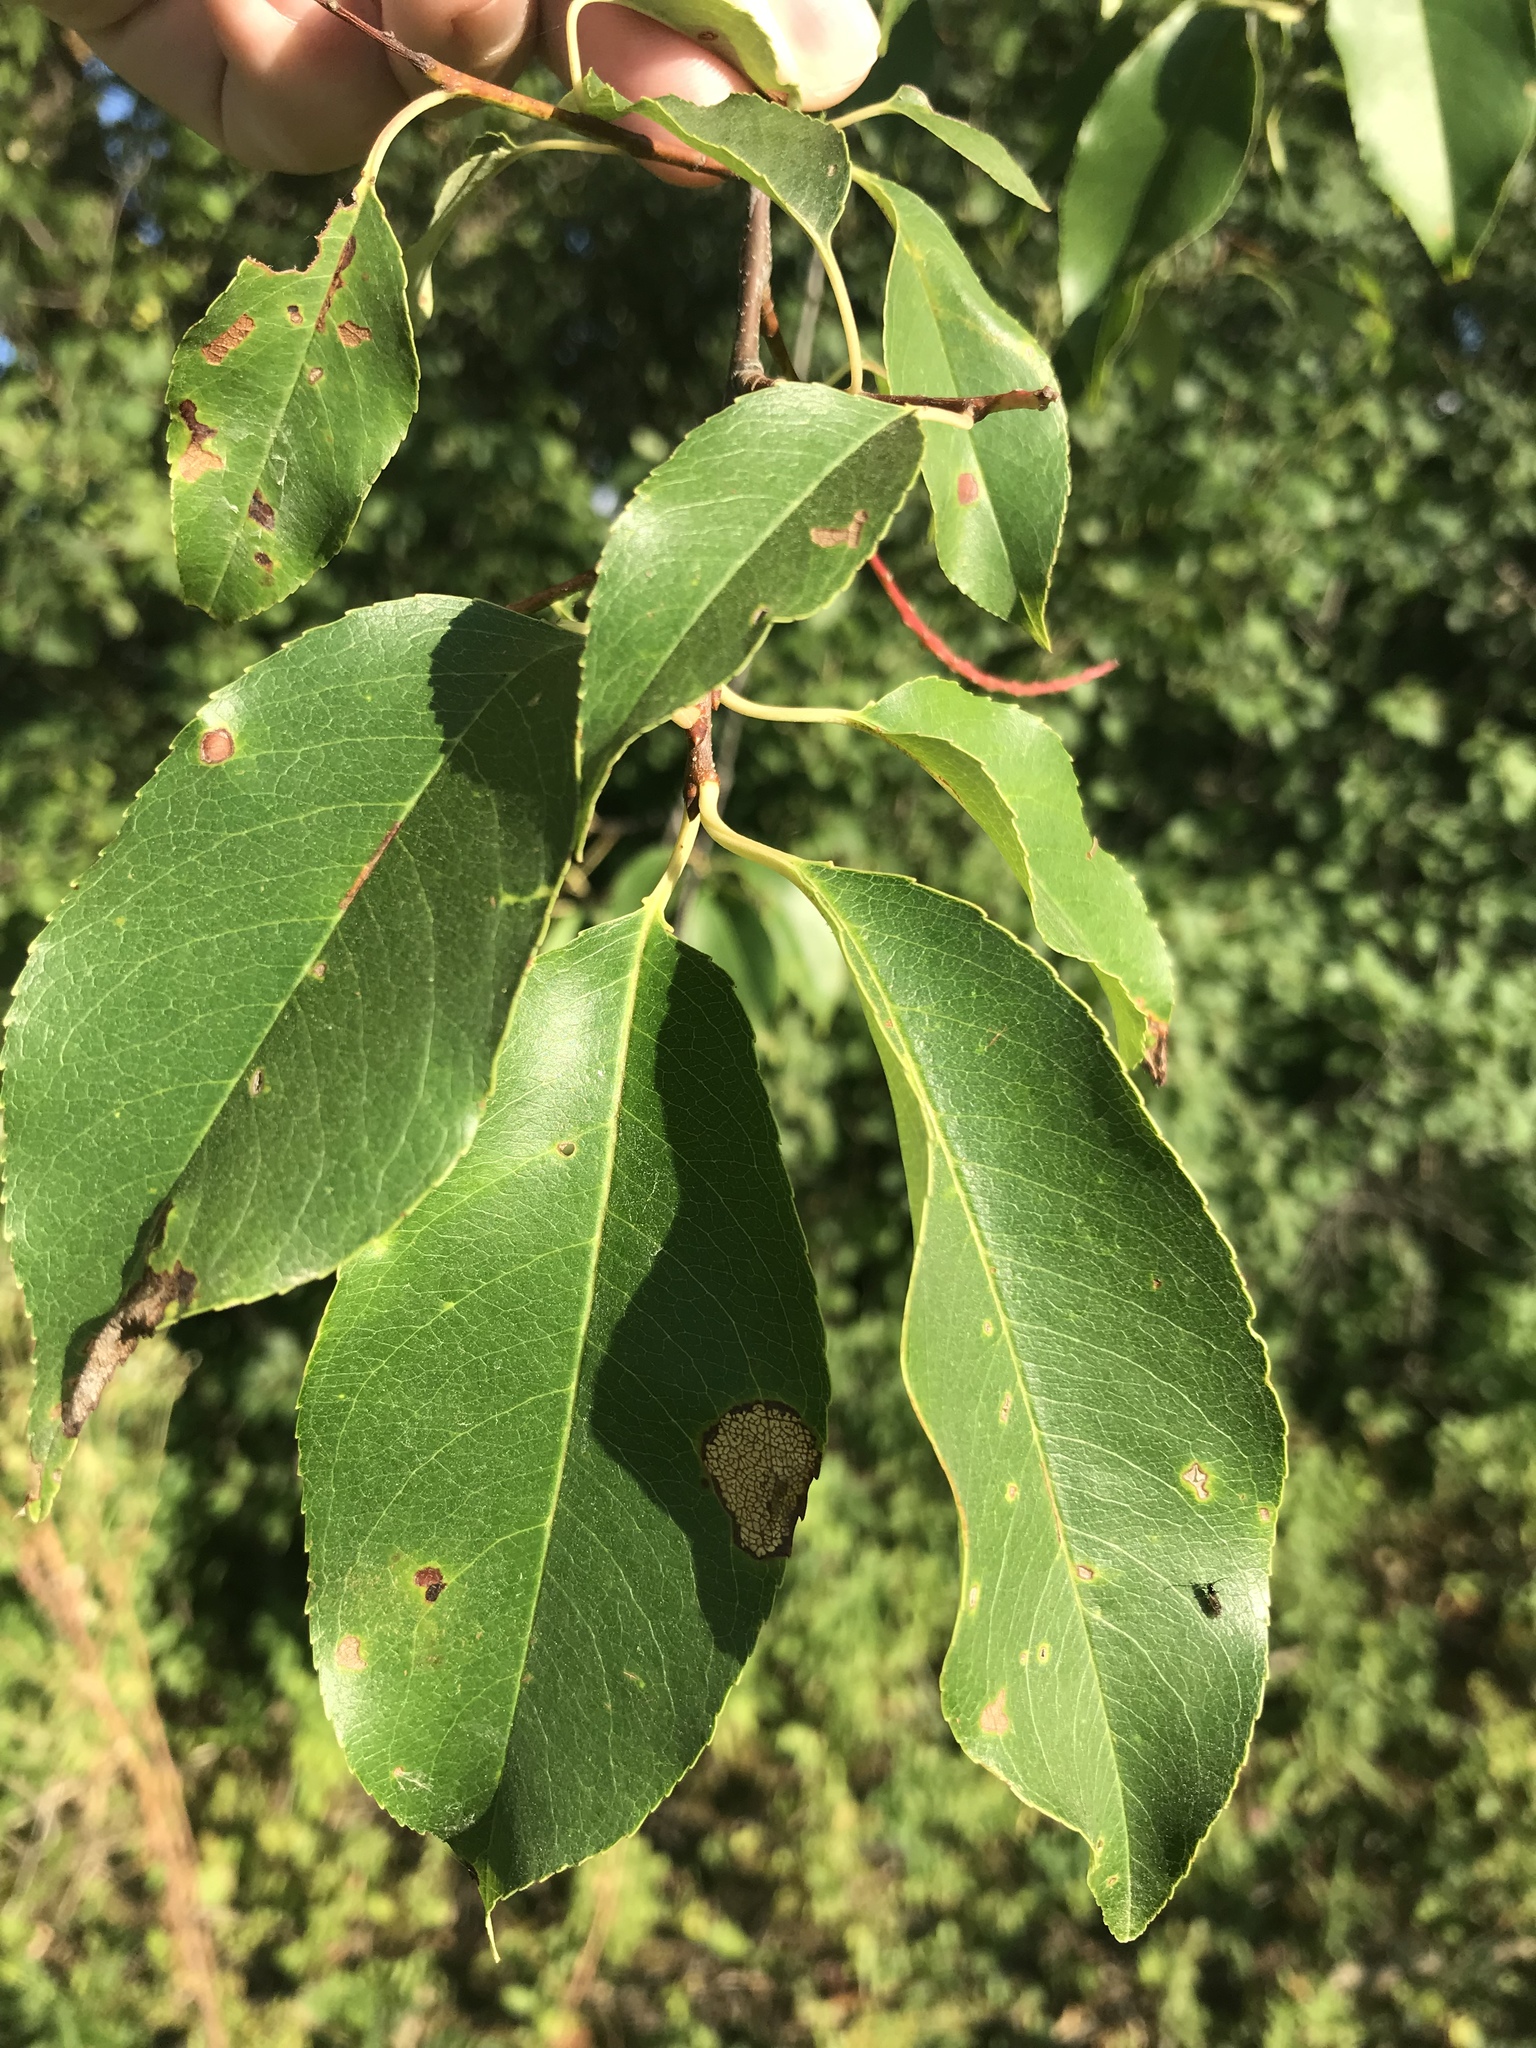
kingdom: Plantae
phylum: Tracheophyta
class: Magnoliopsida
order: Rosales
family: Rosaceae
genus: Prunus
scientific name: Prunus serotina
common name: Black cherry
